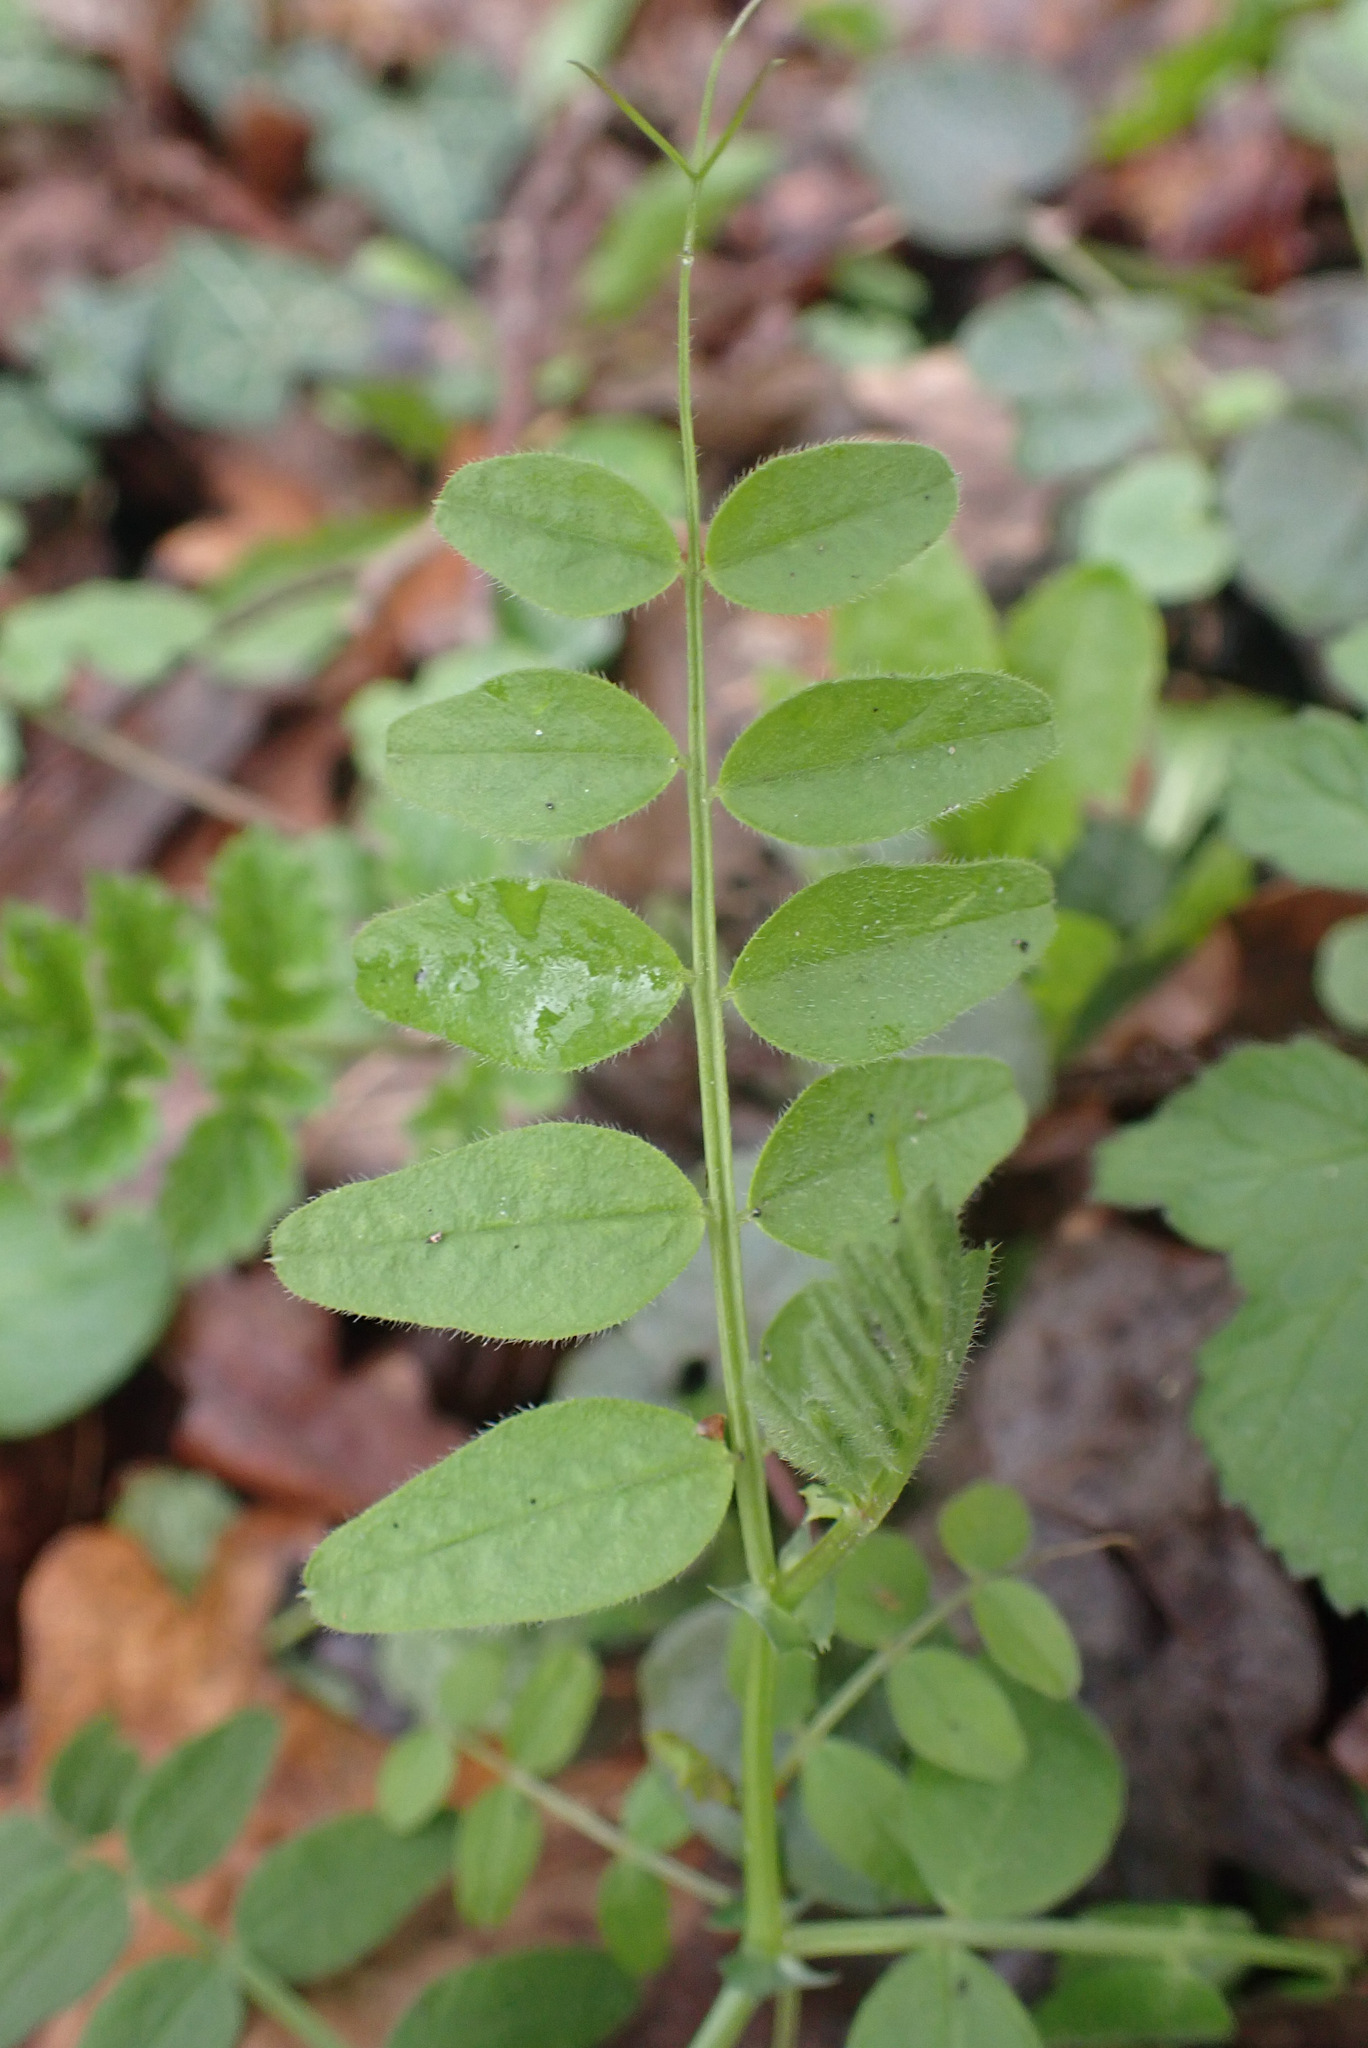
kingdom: Plantae
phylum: Tracheophyta
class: Magnoliopsida
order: Fabales
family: Fabaceae
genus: Vicia
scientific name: Vicia sepium
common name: Bush vetch
